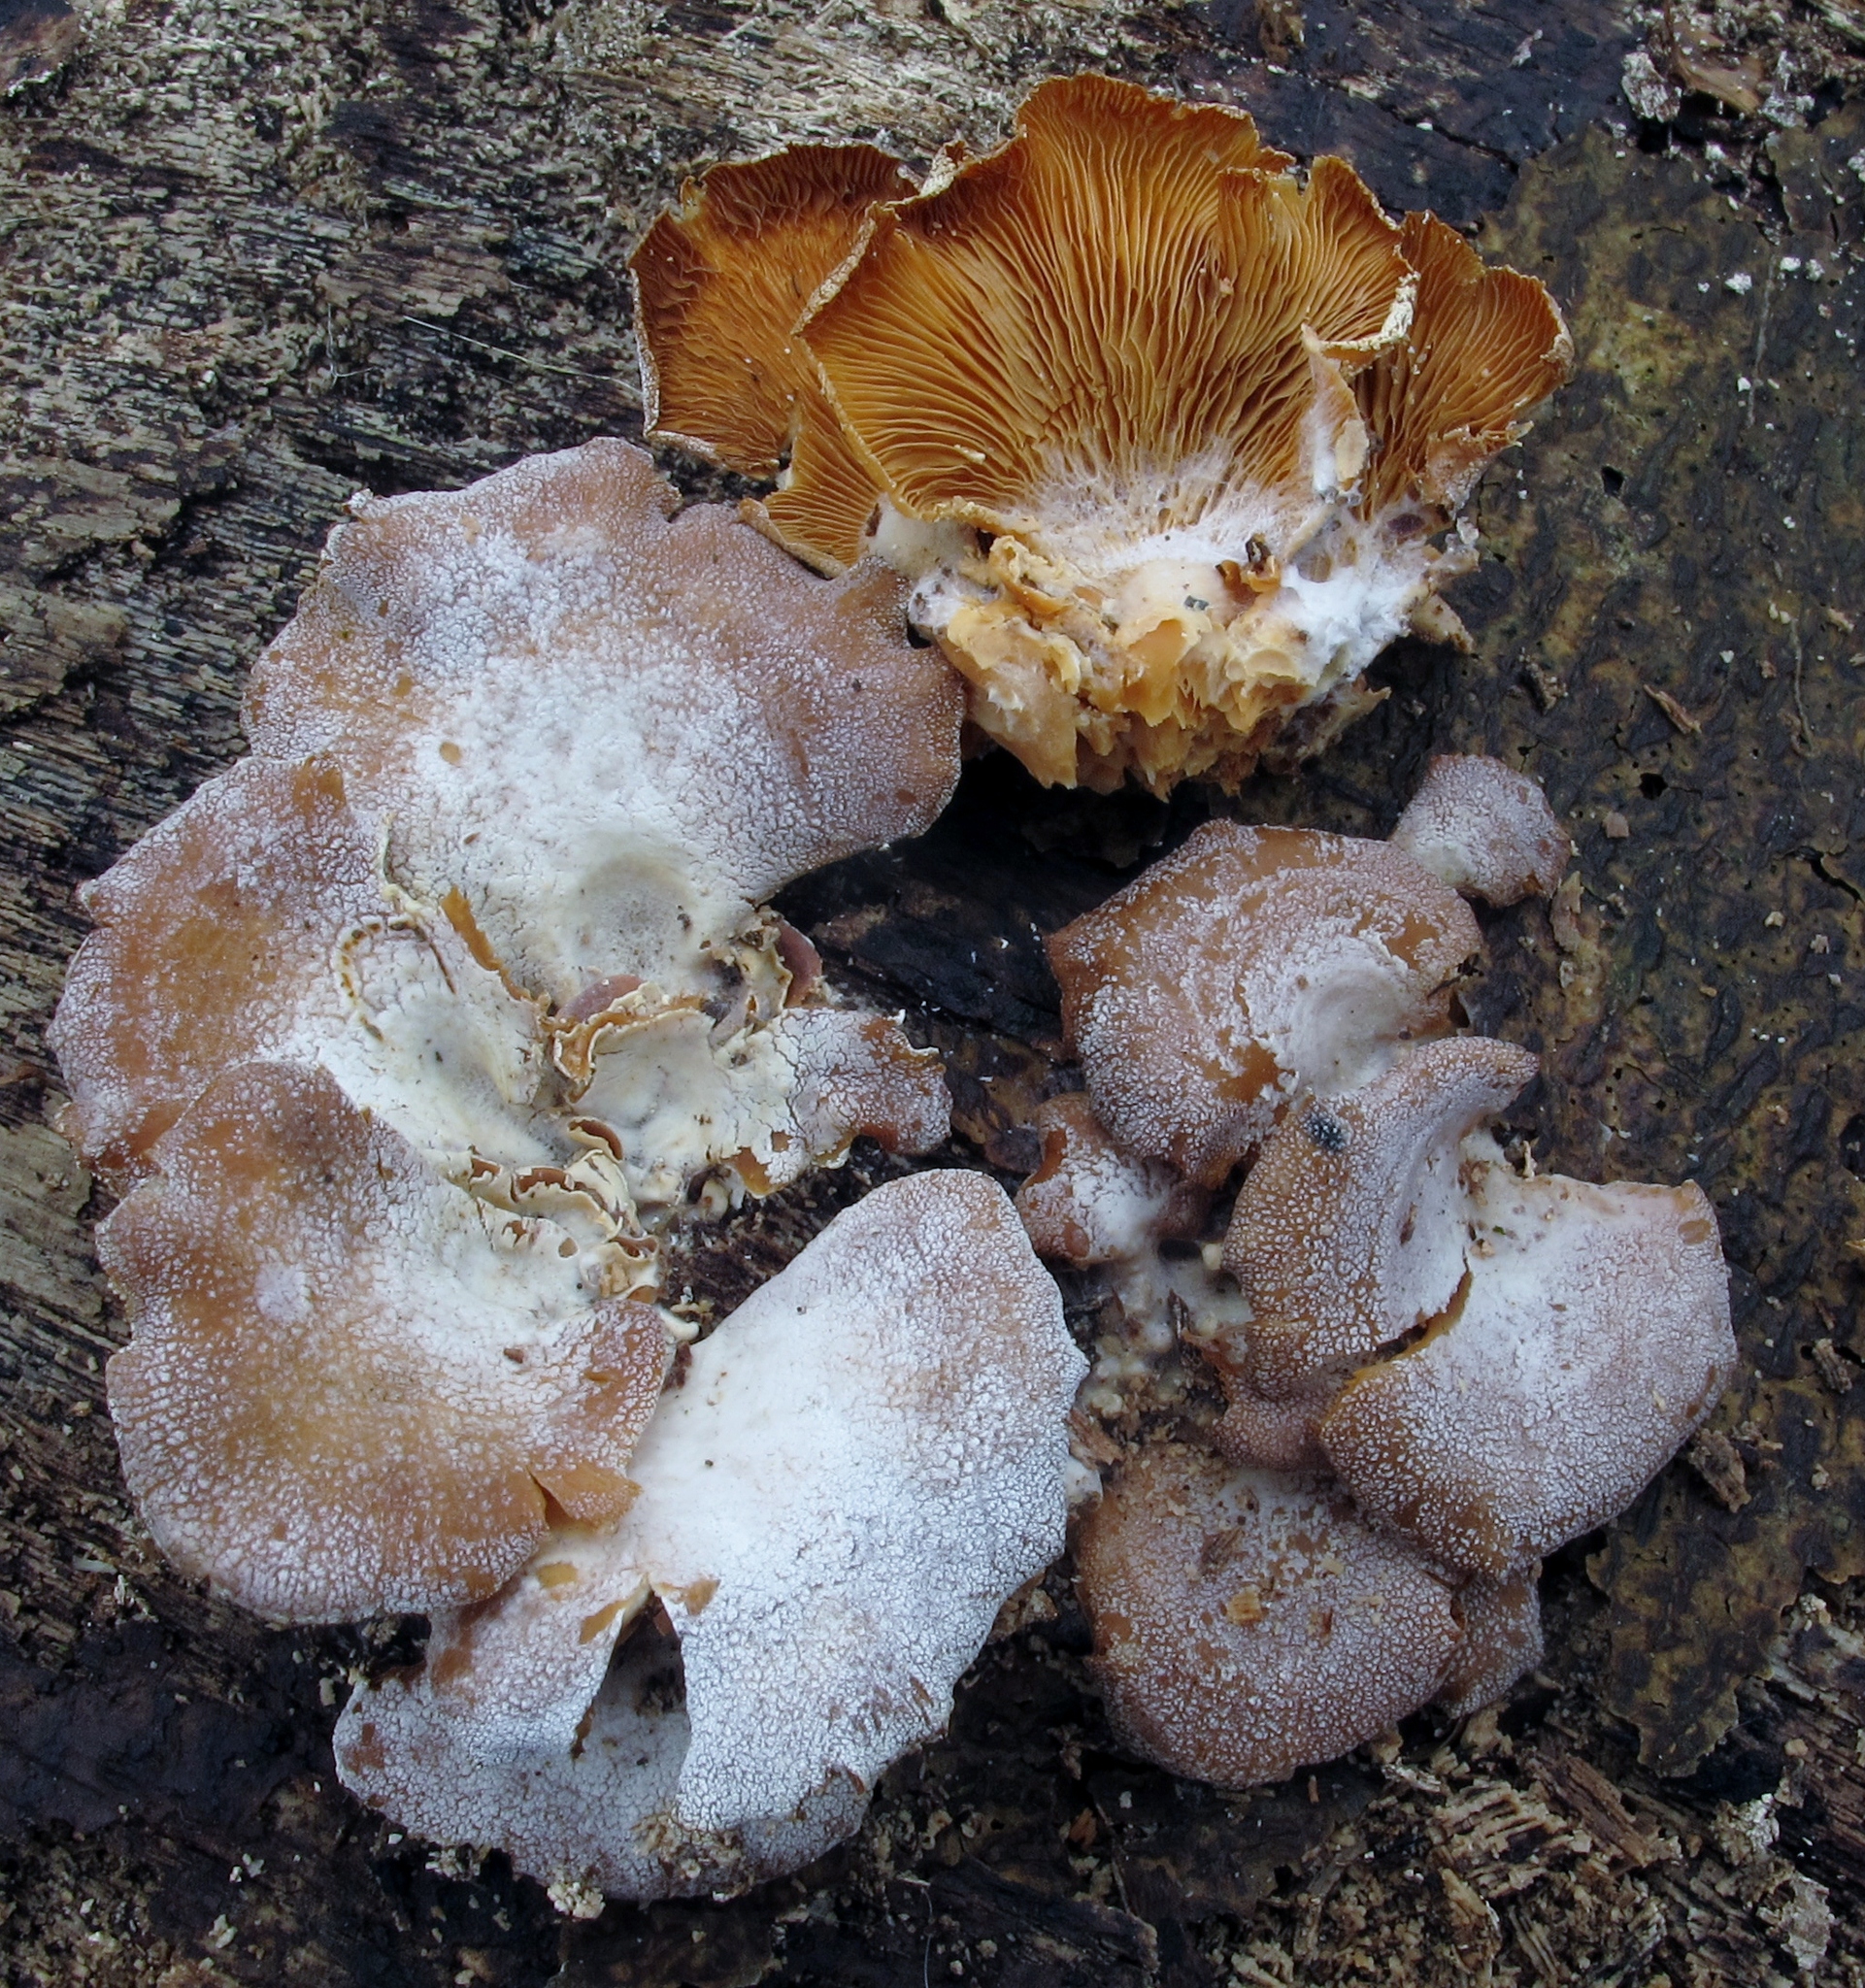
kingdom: Fungi
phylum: Basidiomycota
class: Agaricomycetes
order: Agaricales
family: Mycenaceae
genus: Panellus
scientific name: Panellus stipticus
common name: Bitter oysterling
